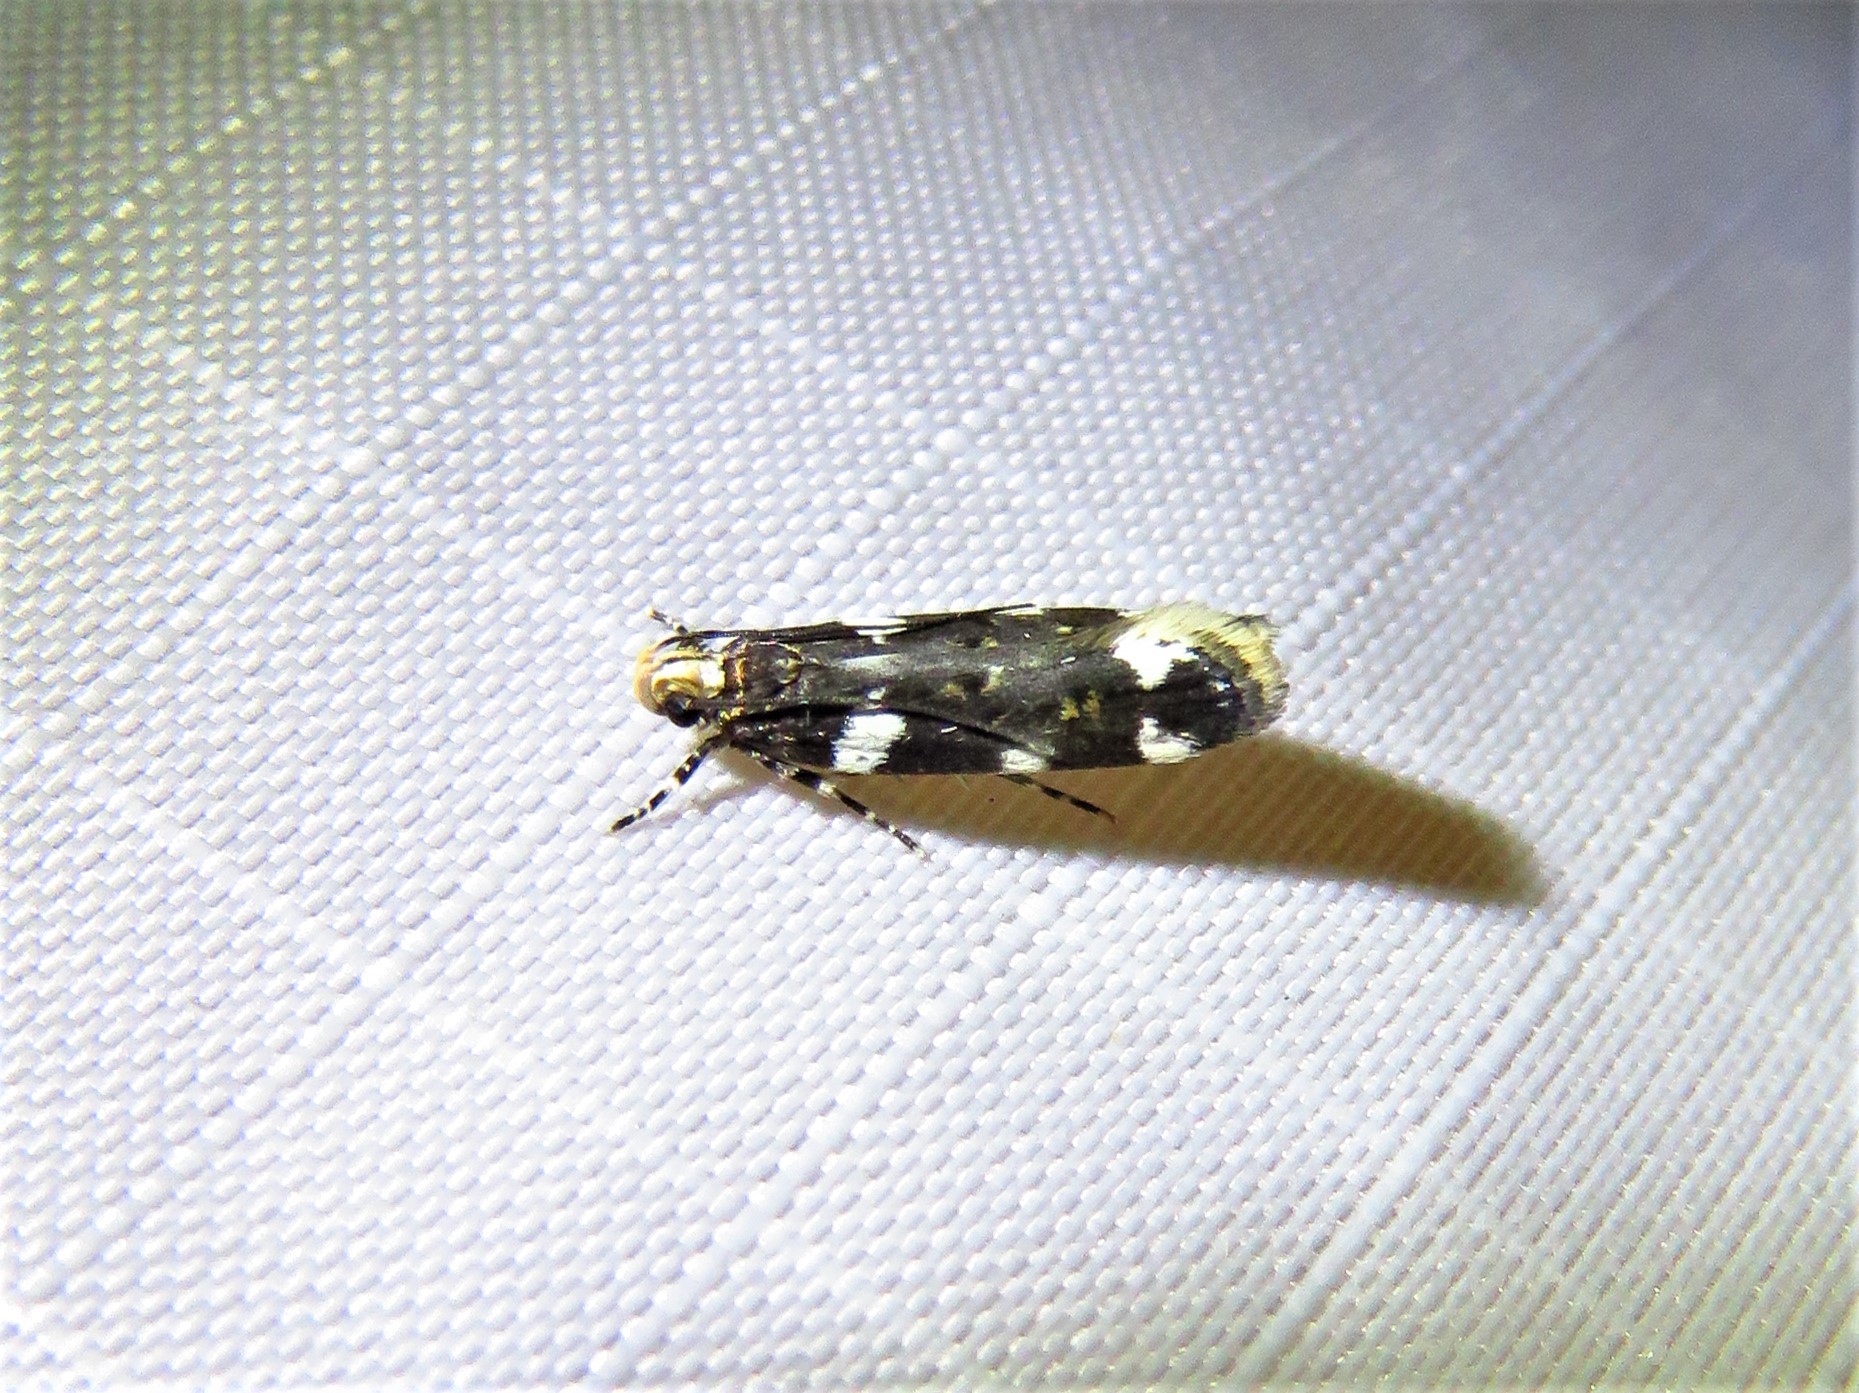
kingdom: Animalia
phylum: Arthropoda
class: Insecta
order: Lepidoptera
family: Gelechiidae
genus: Fascista
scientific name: Fascista cercerisella
